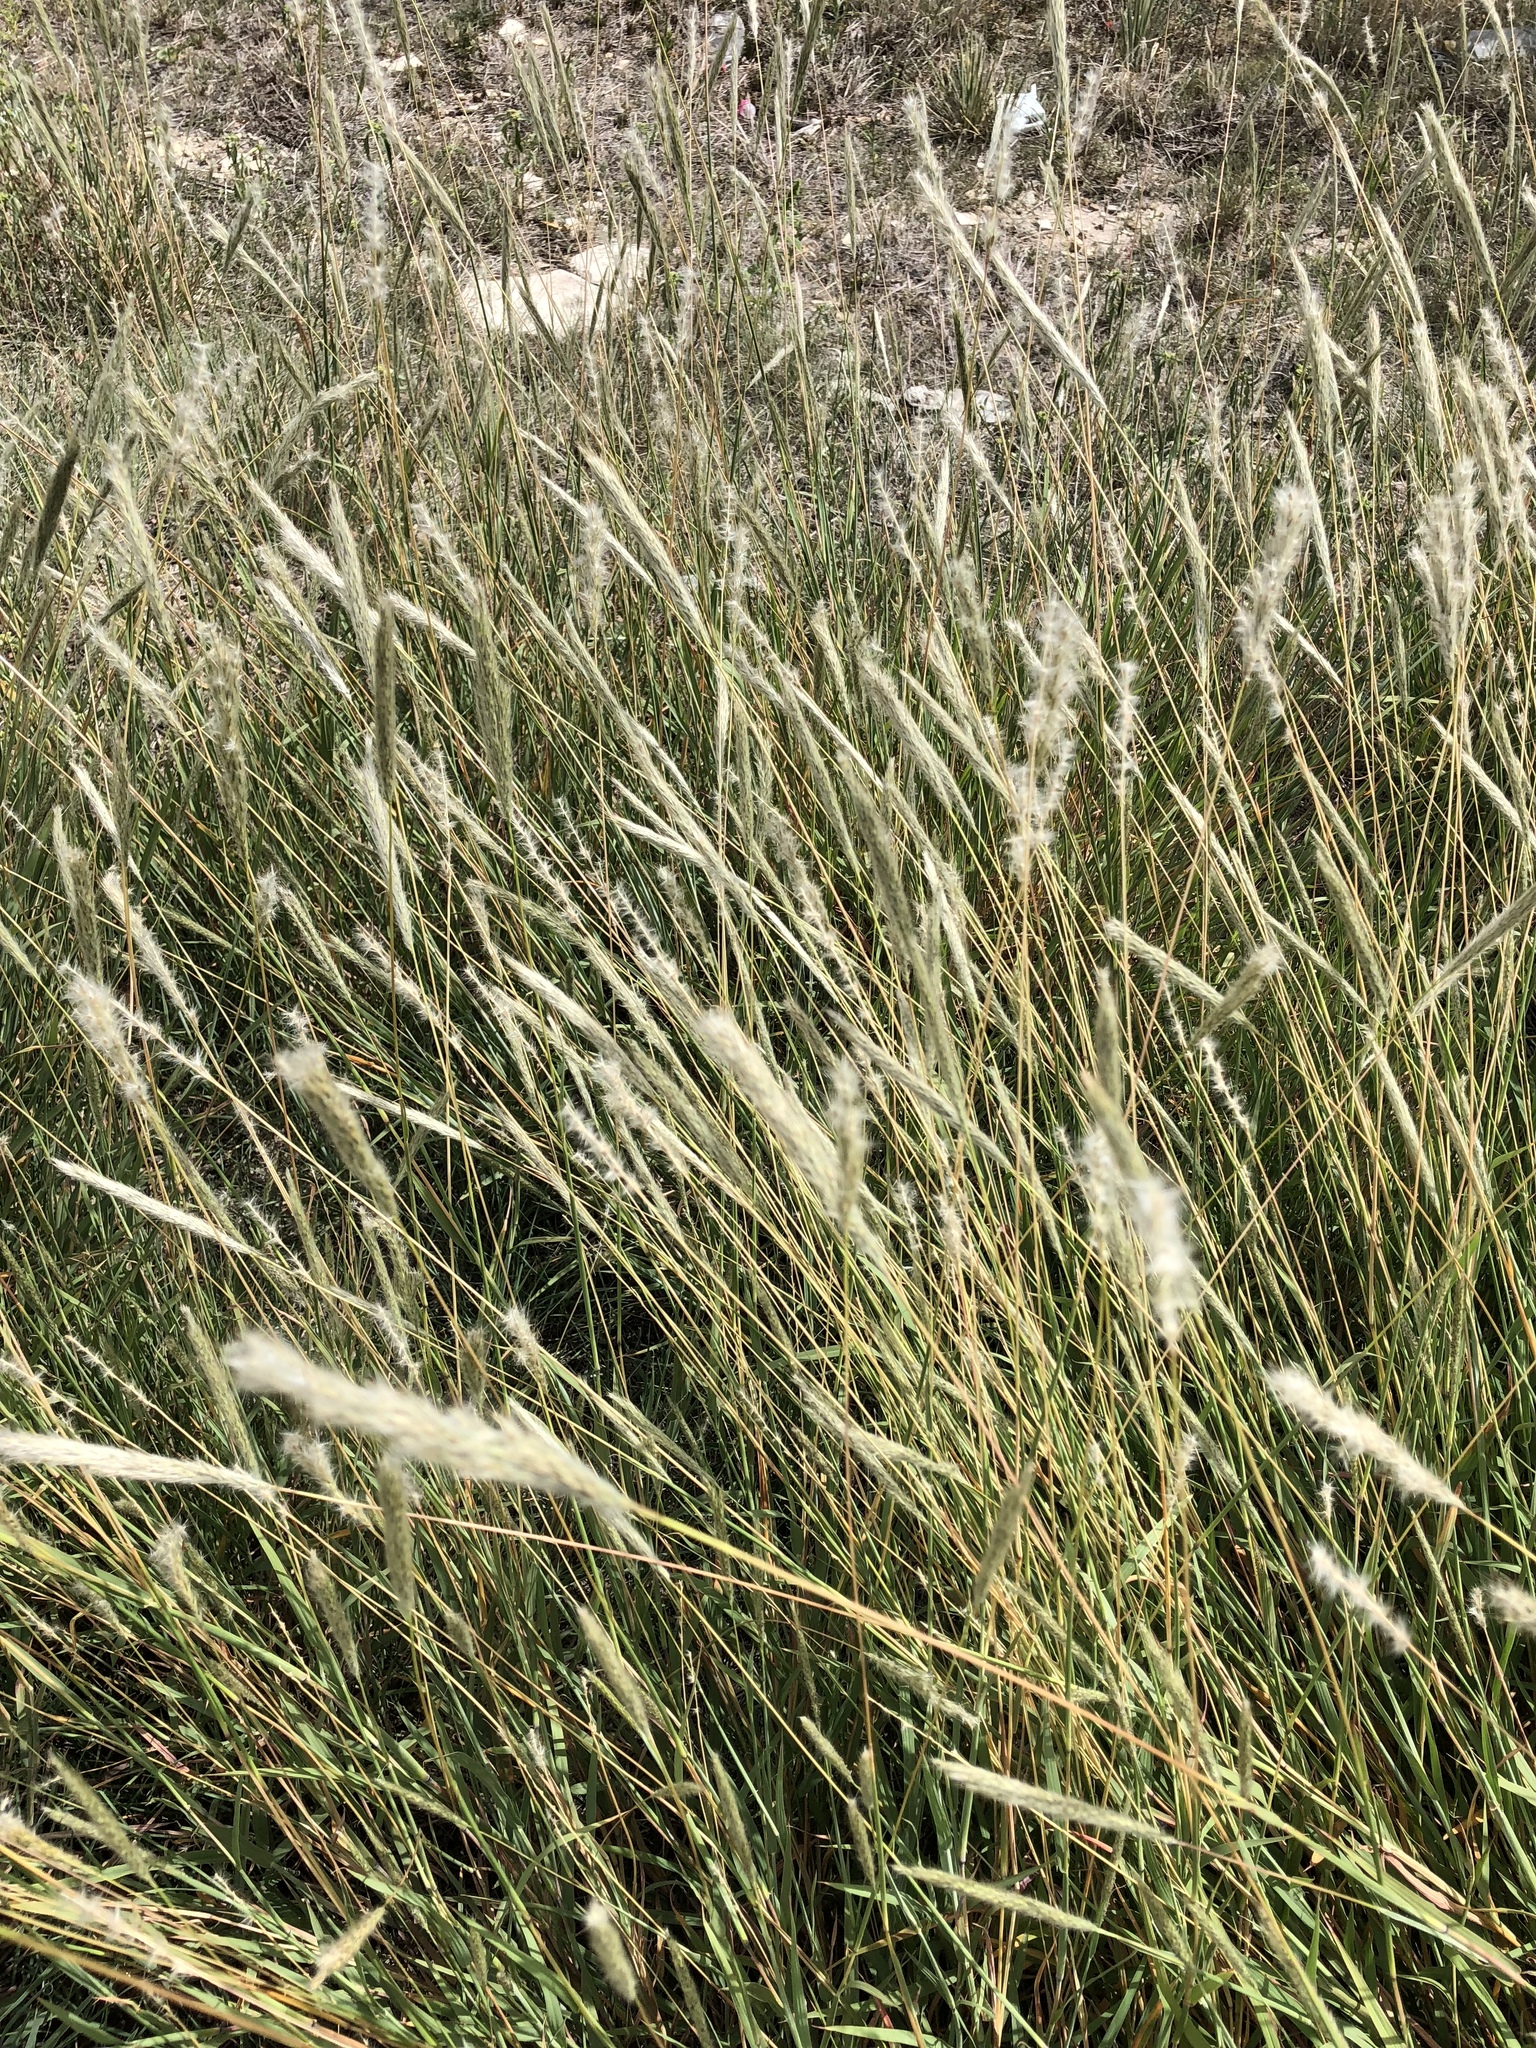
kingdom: Plantae
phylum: Tracheophyta
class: Liliopsida
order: Poales
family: Poaceae
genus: Bothriochloa
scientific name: Bothriochloa torreyana
